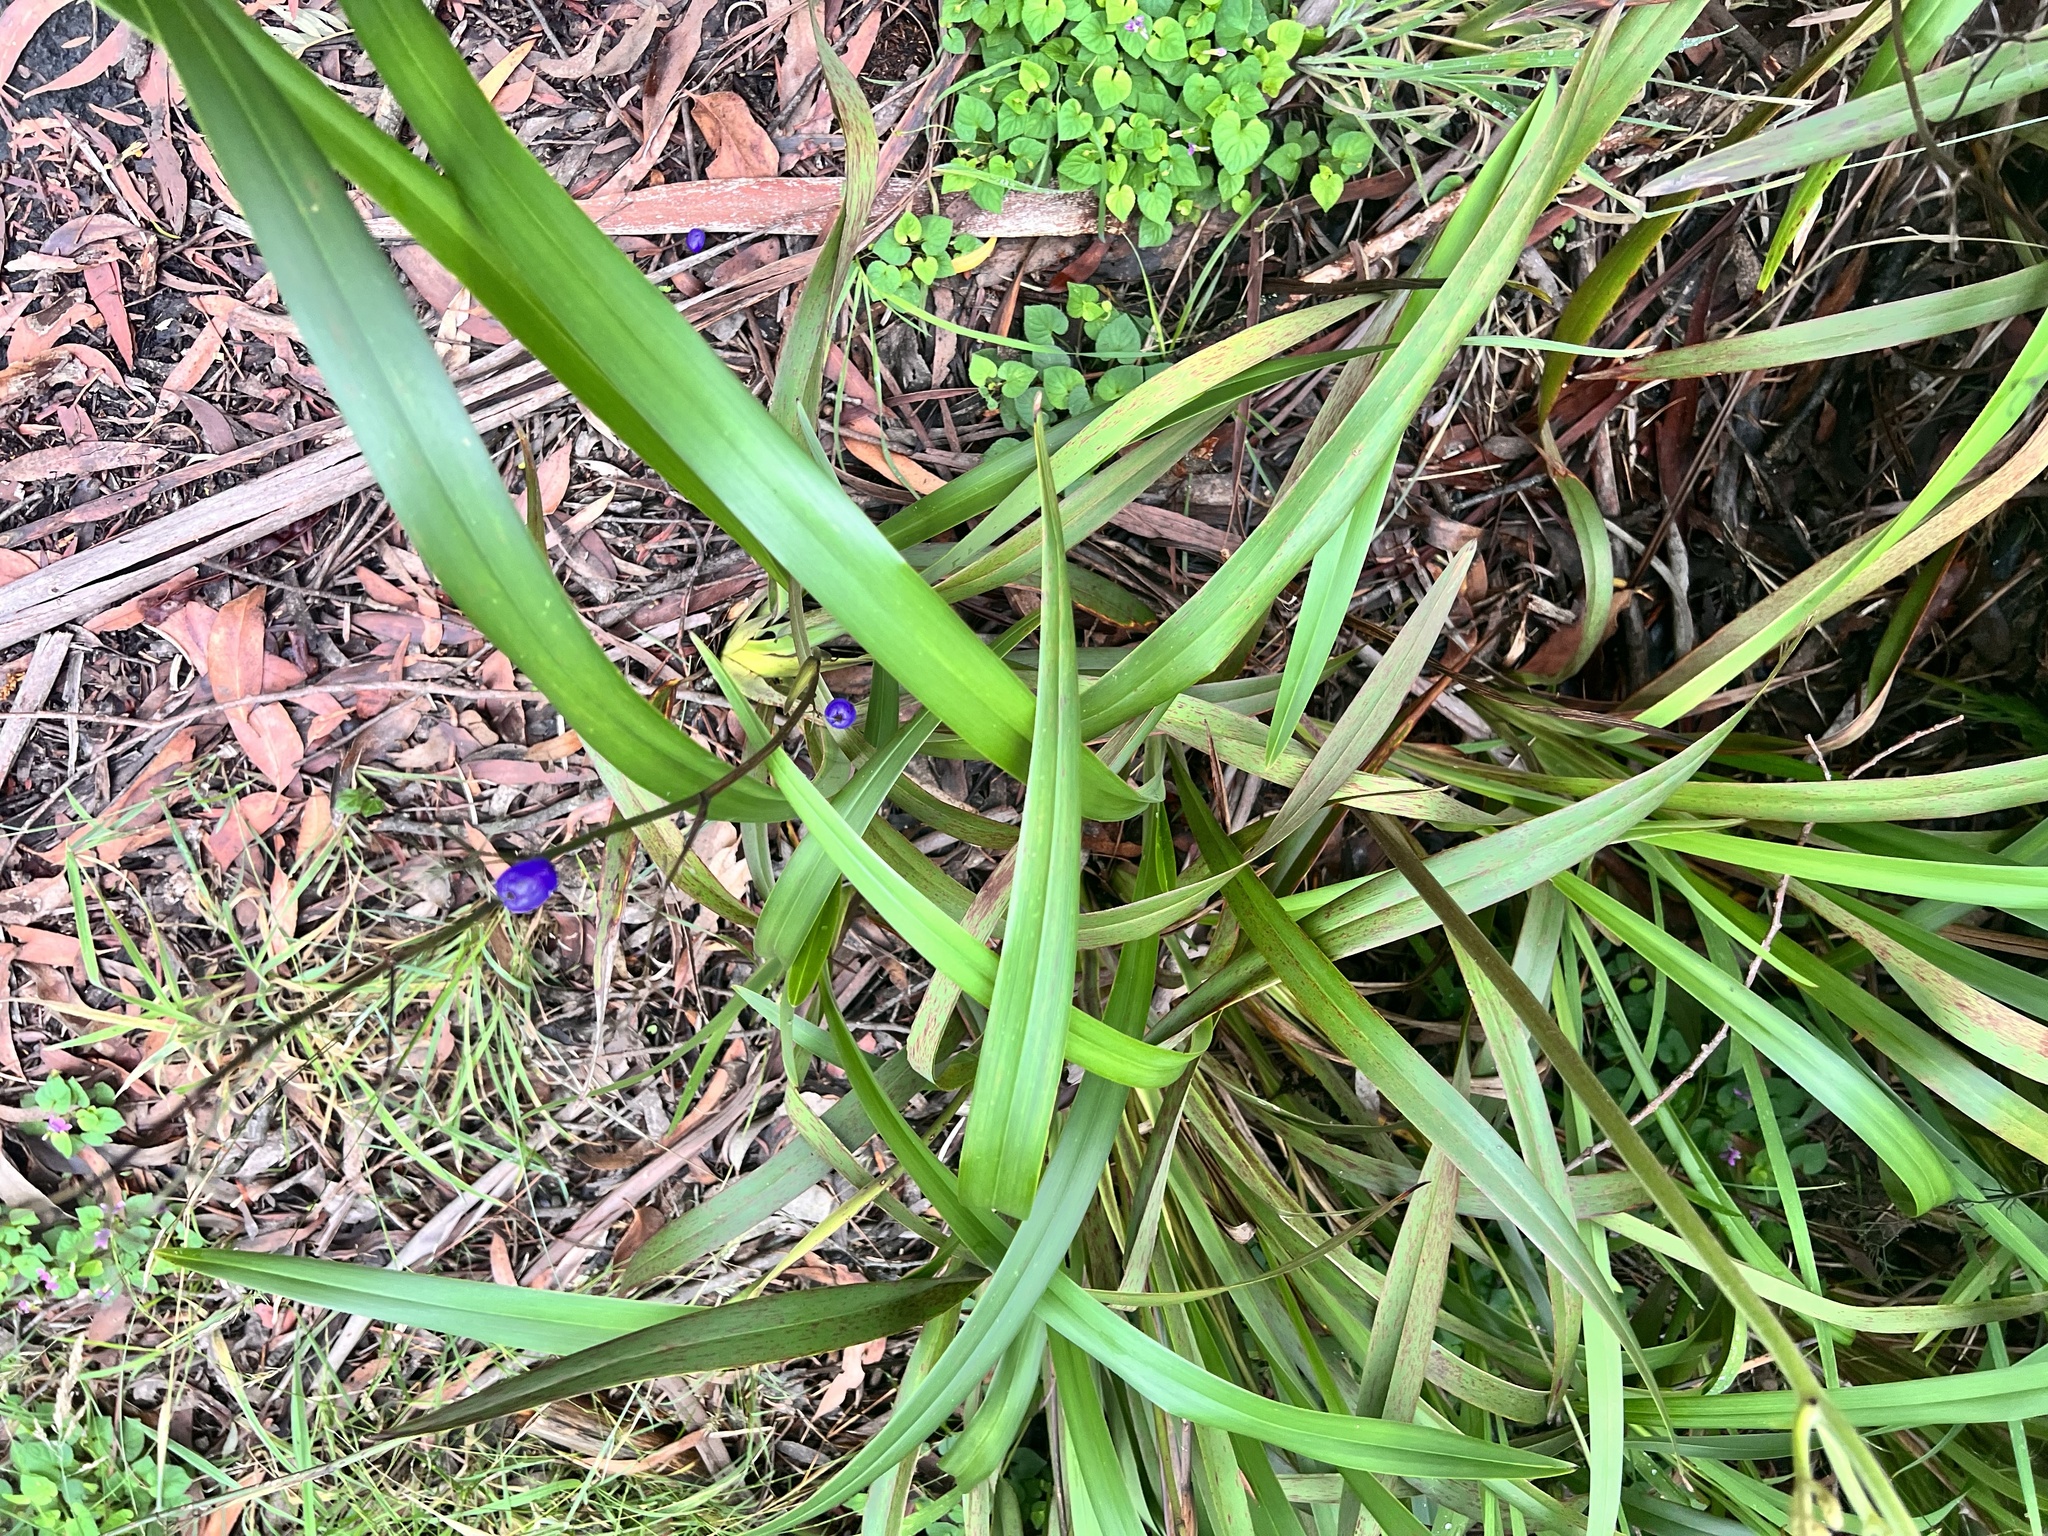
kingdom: Plantae
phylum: Tracheophyta
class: Liliopsida
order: Asparagales
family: Asphodelaceae
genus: Dianella
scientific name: Dianella tasmanica
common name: Tasman flax-lily
